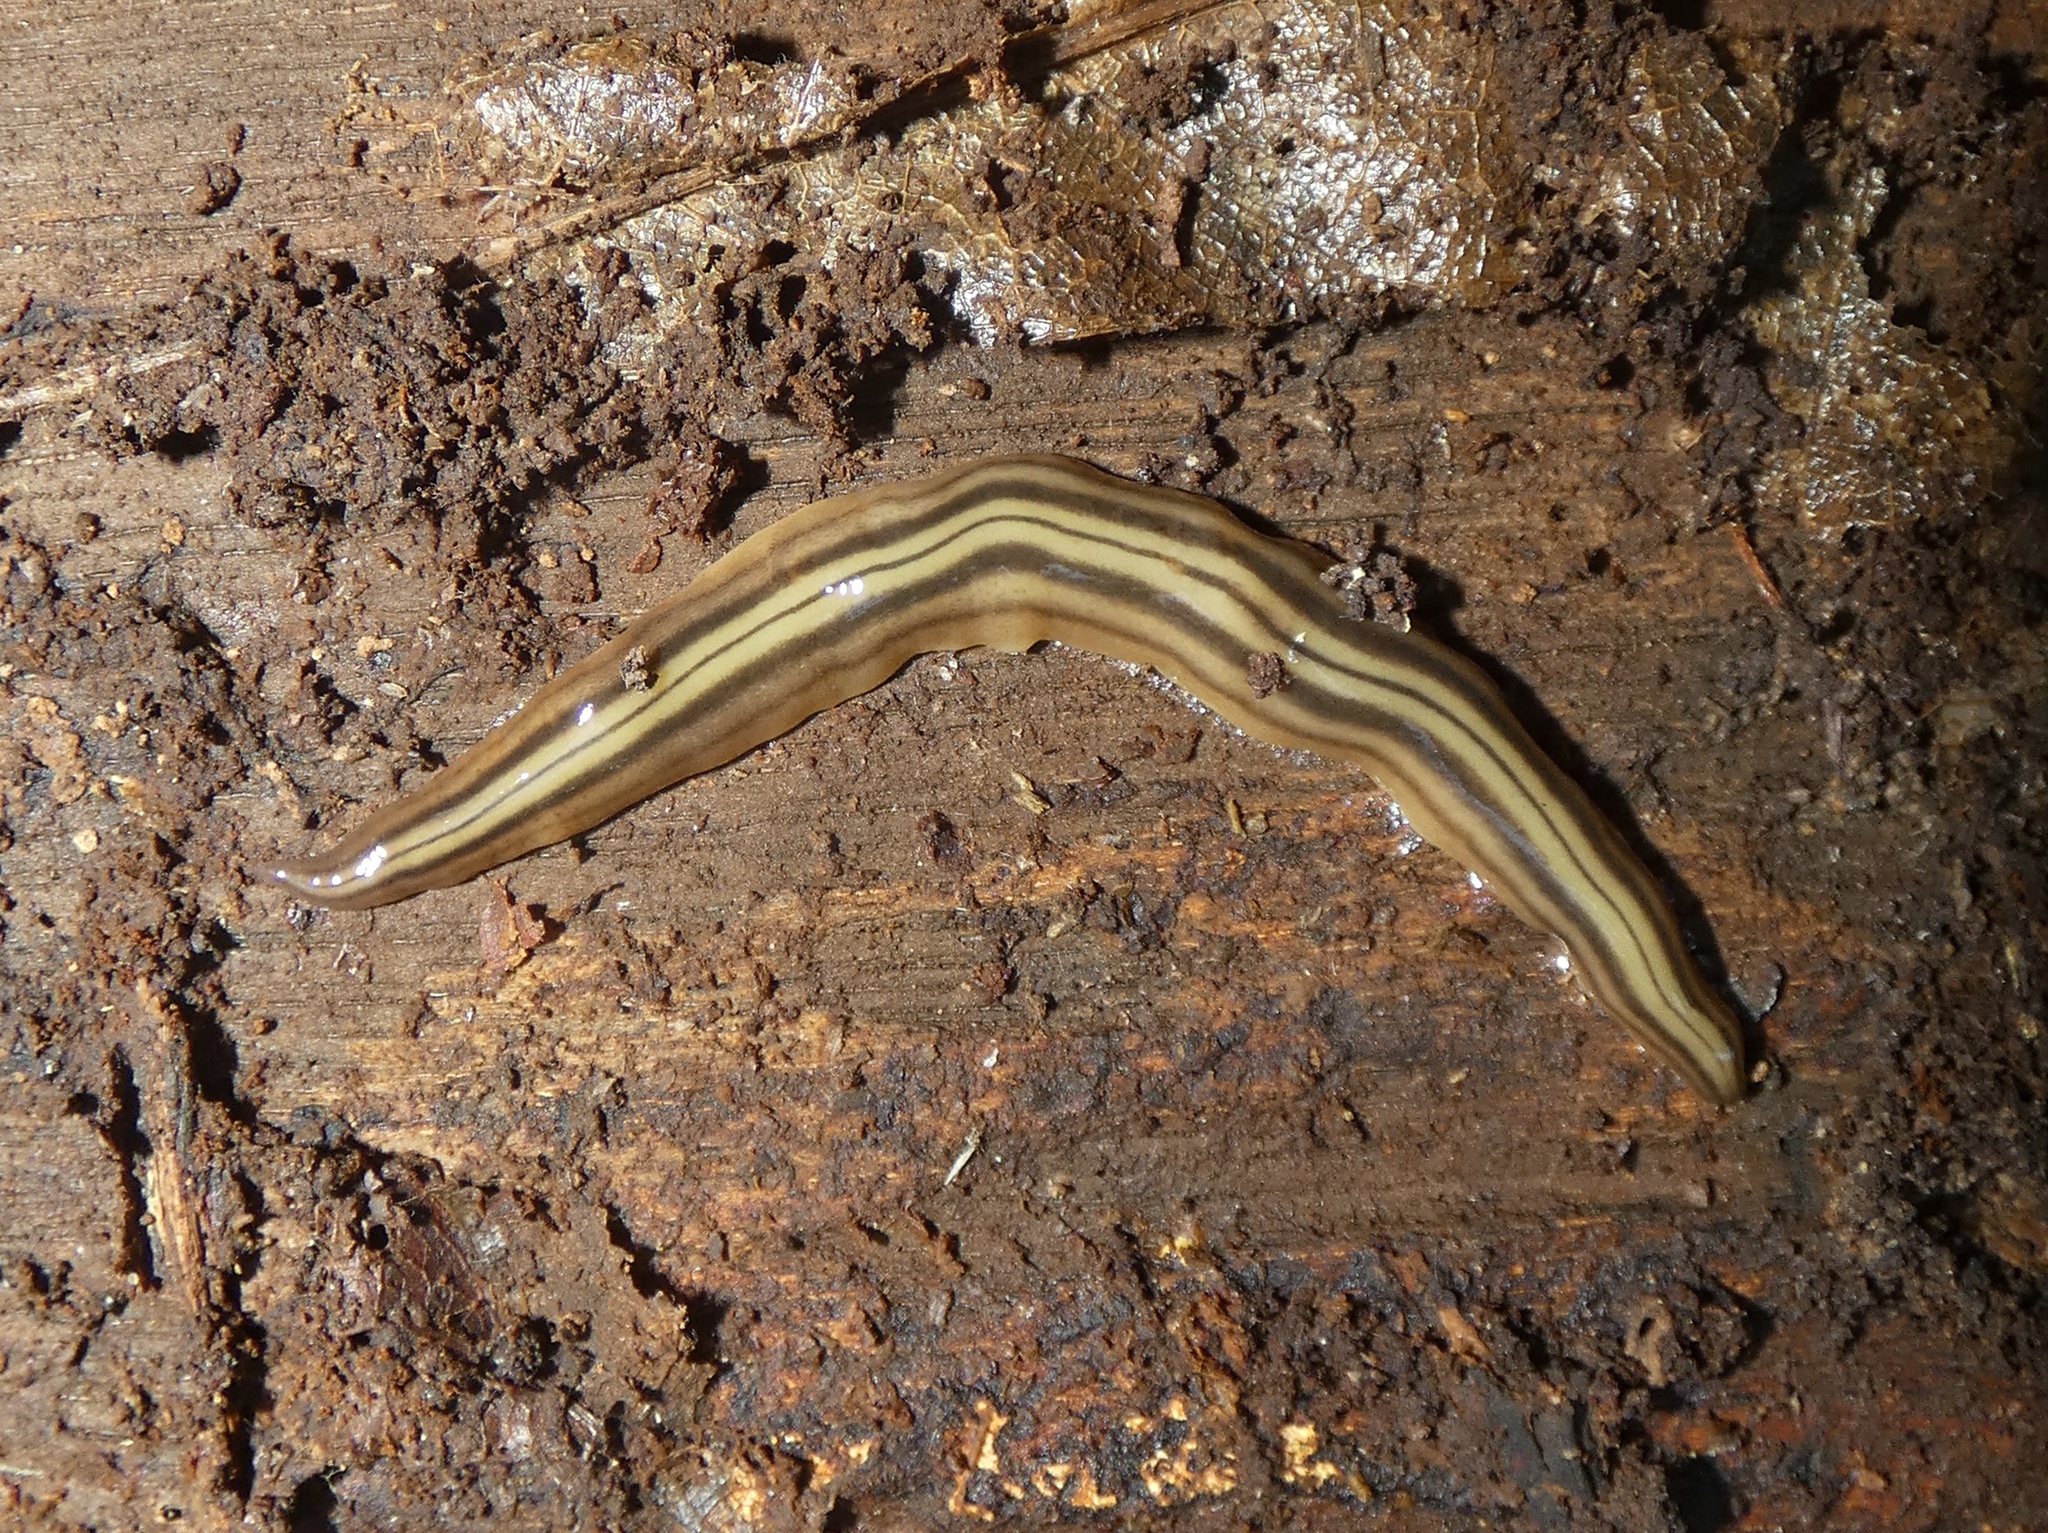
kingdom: Animalia
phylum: Platyhelminthes
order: Tricladida
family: Geoplanidae
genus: Notogynaphallia
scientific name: Notogynaphallia quinquestriata
